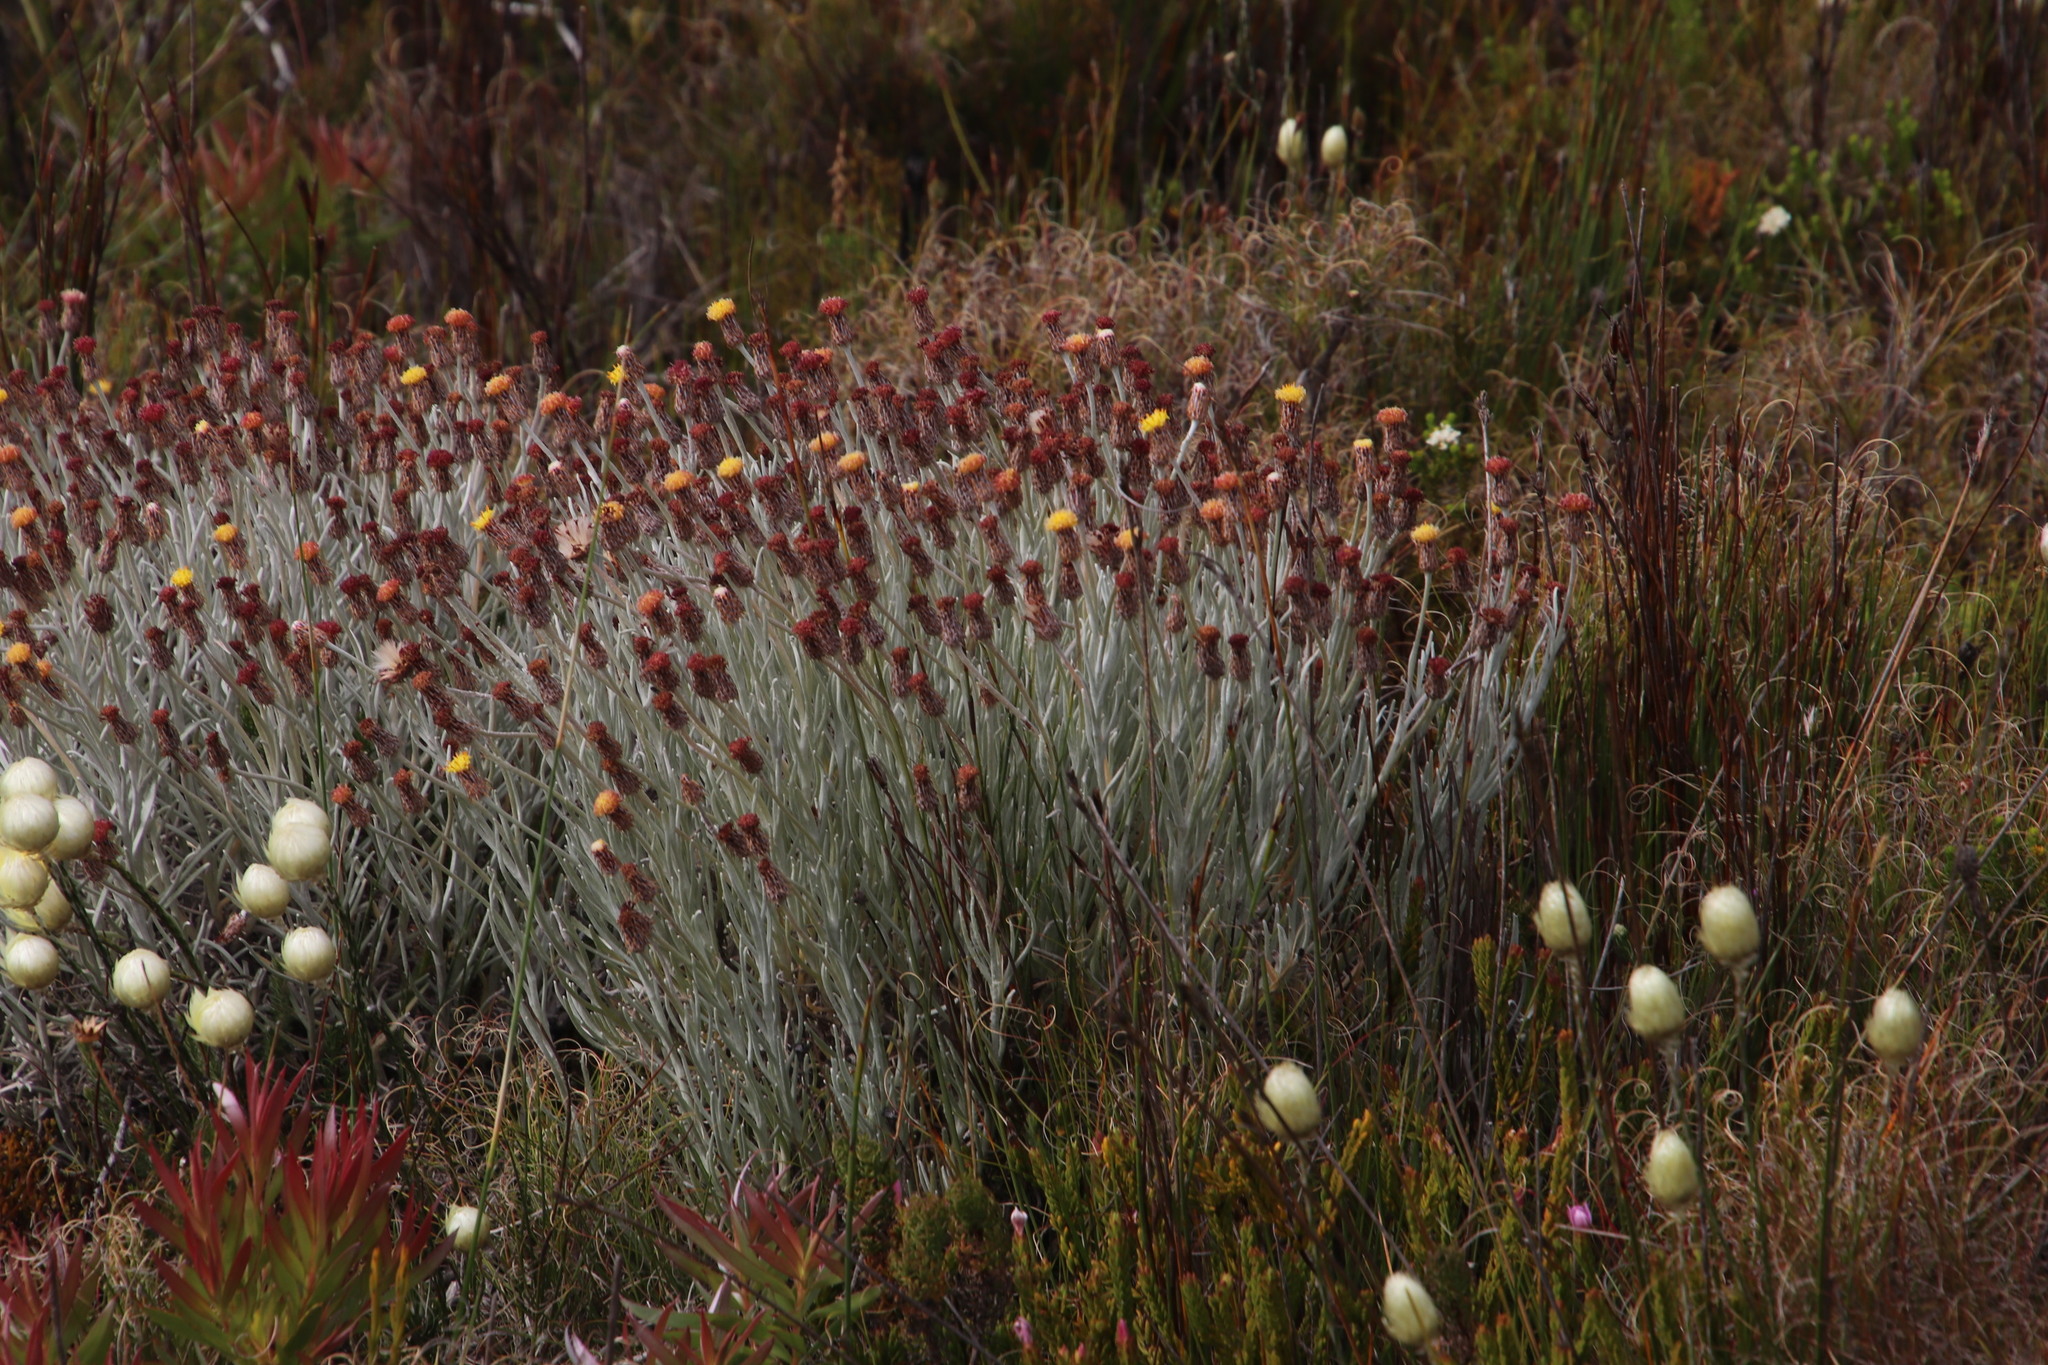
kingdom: Plantae
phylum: Tracheophyta
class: Magnoliopsida
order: Asterales
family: Asteraceae
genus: Syncarpha
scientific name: Syncarpha gnaphaloides
